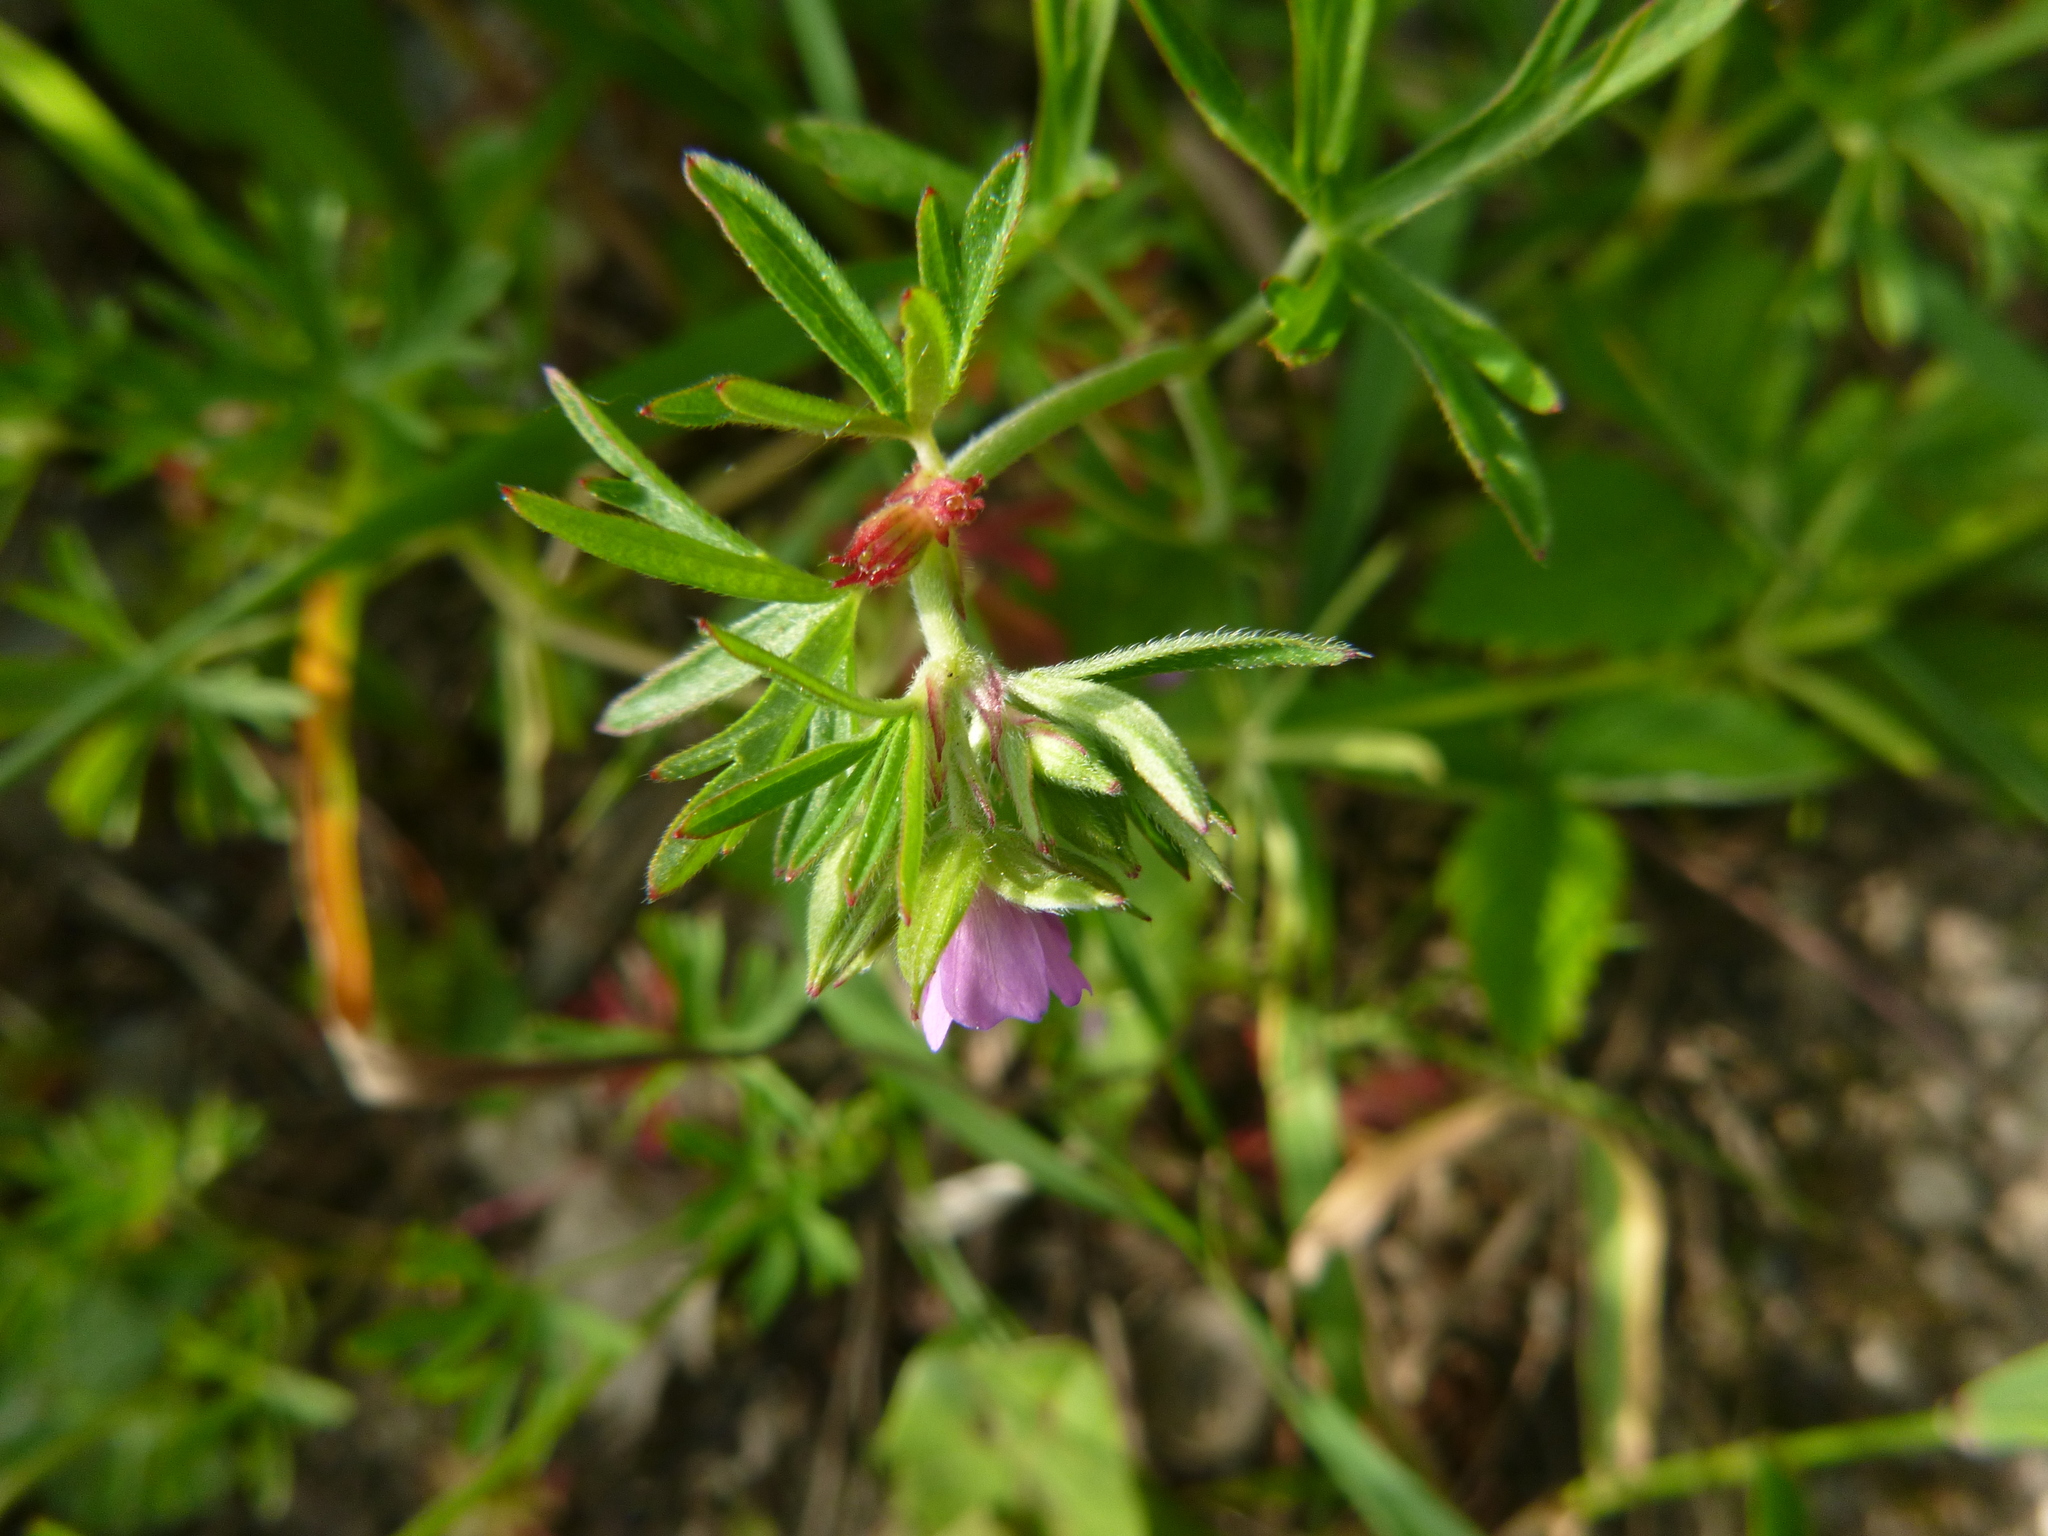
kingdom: Plantae
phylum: Tracheophyta
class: Magnoliopsida
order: Geraniales
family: Geraniaceae
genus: Geranium
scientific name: Geranium dissectum
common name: Cut-leaved crane's-bill
